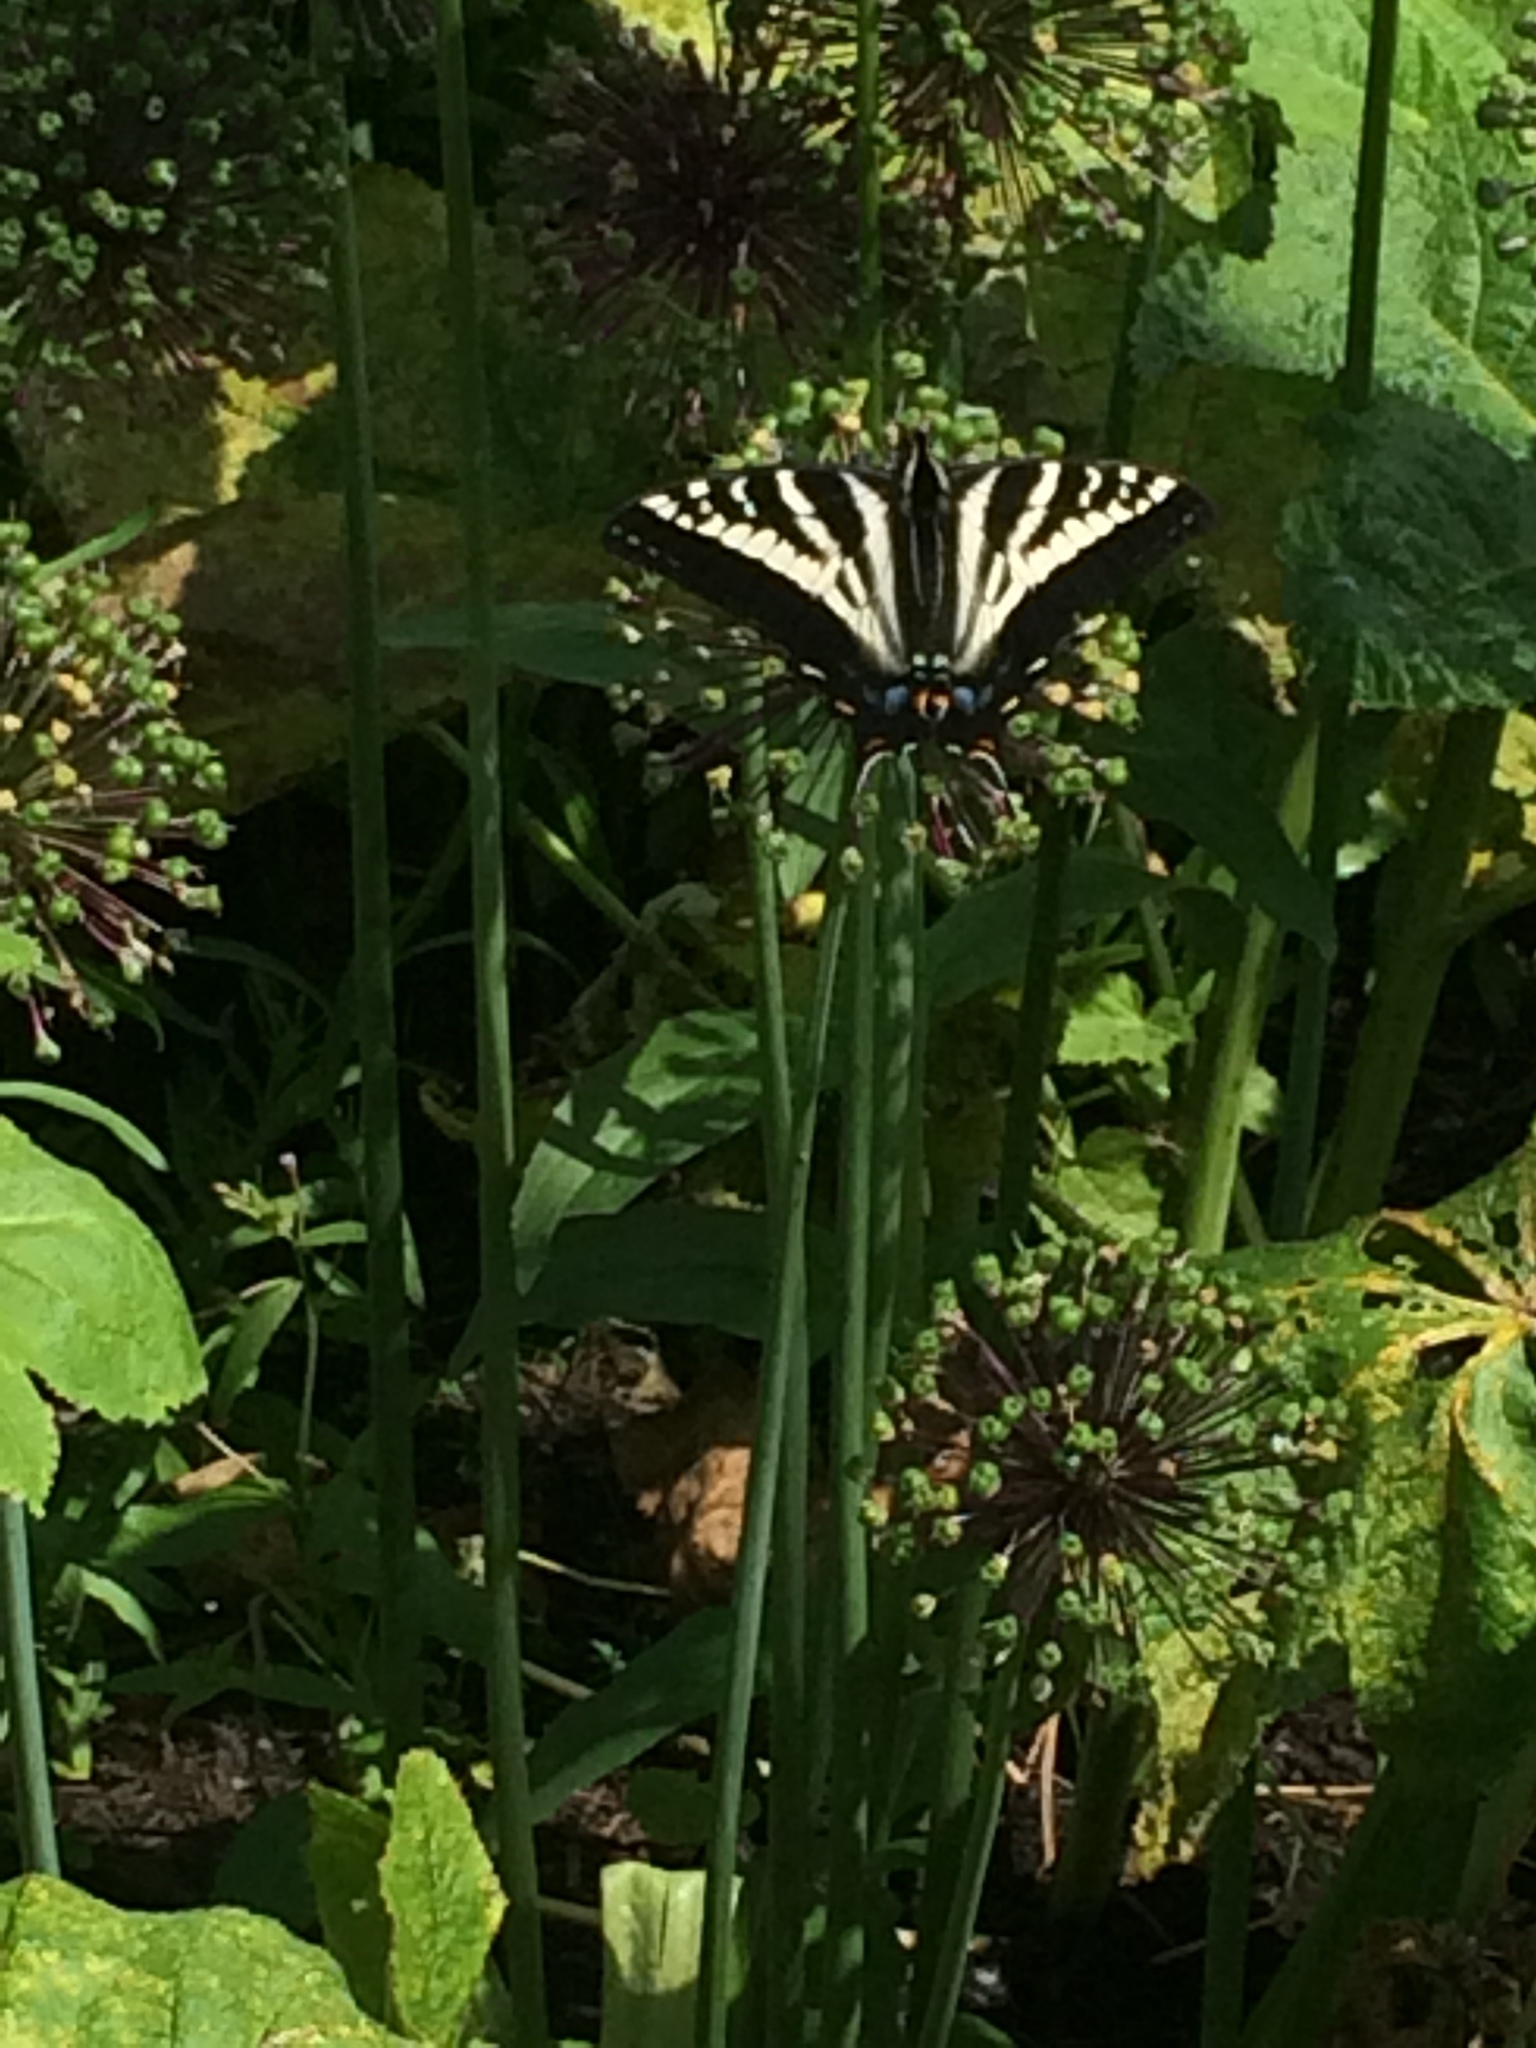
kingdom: Animalia
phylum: Arthropoda
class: Insecta
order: Lepidoptera
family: Papilionidae
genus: Papilio
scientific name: Papilio eurymedon
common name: Pale tiger swallowtail
